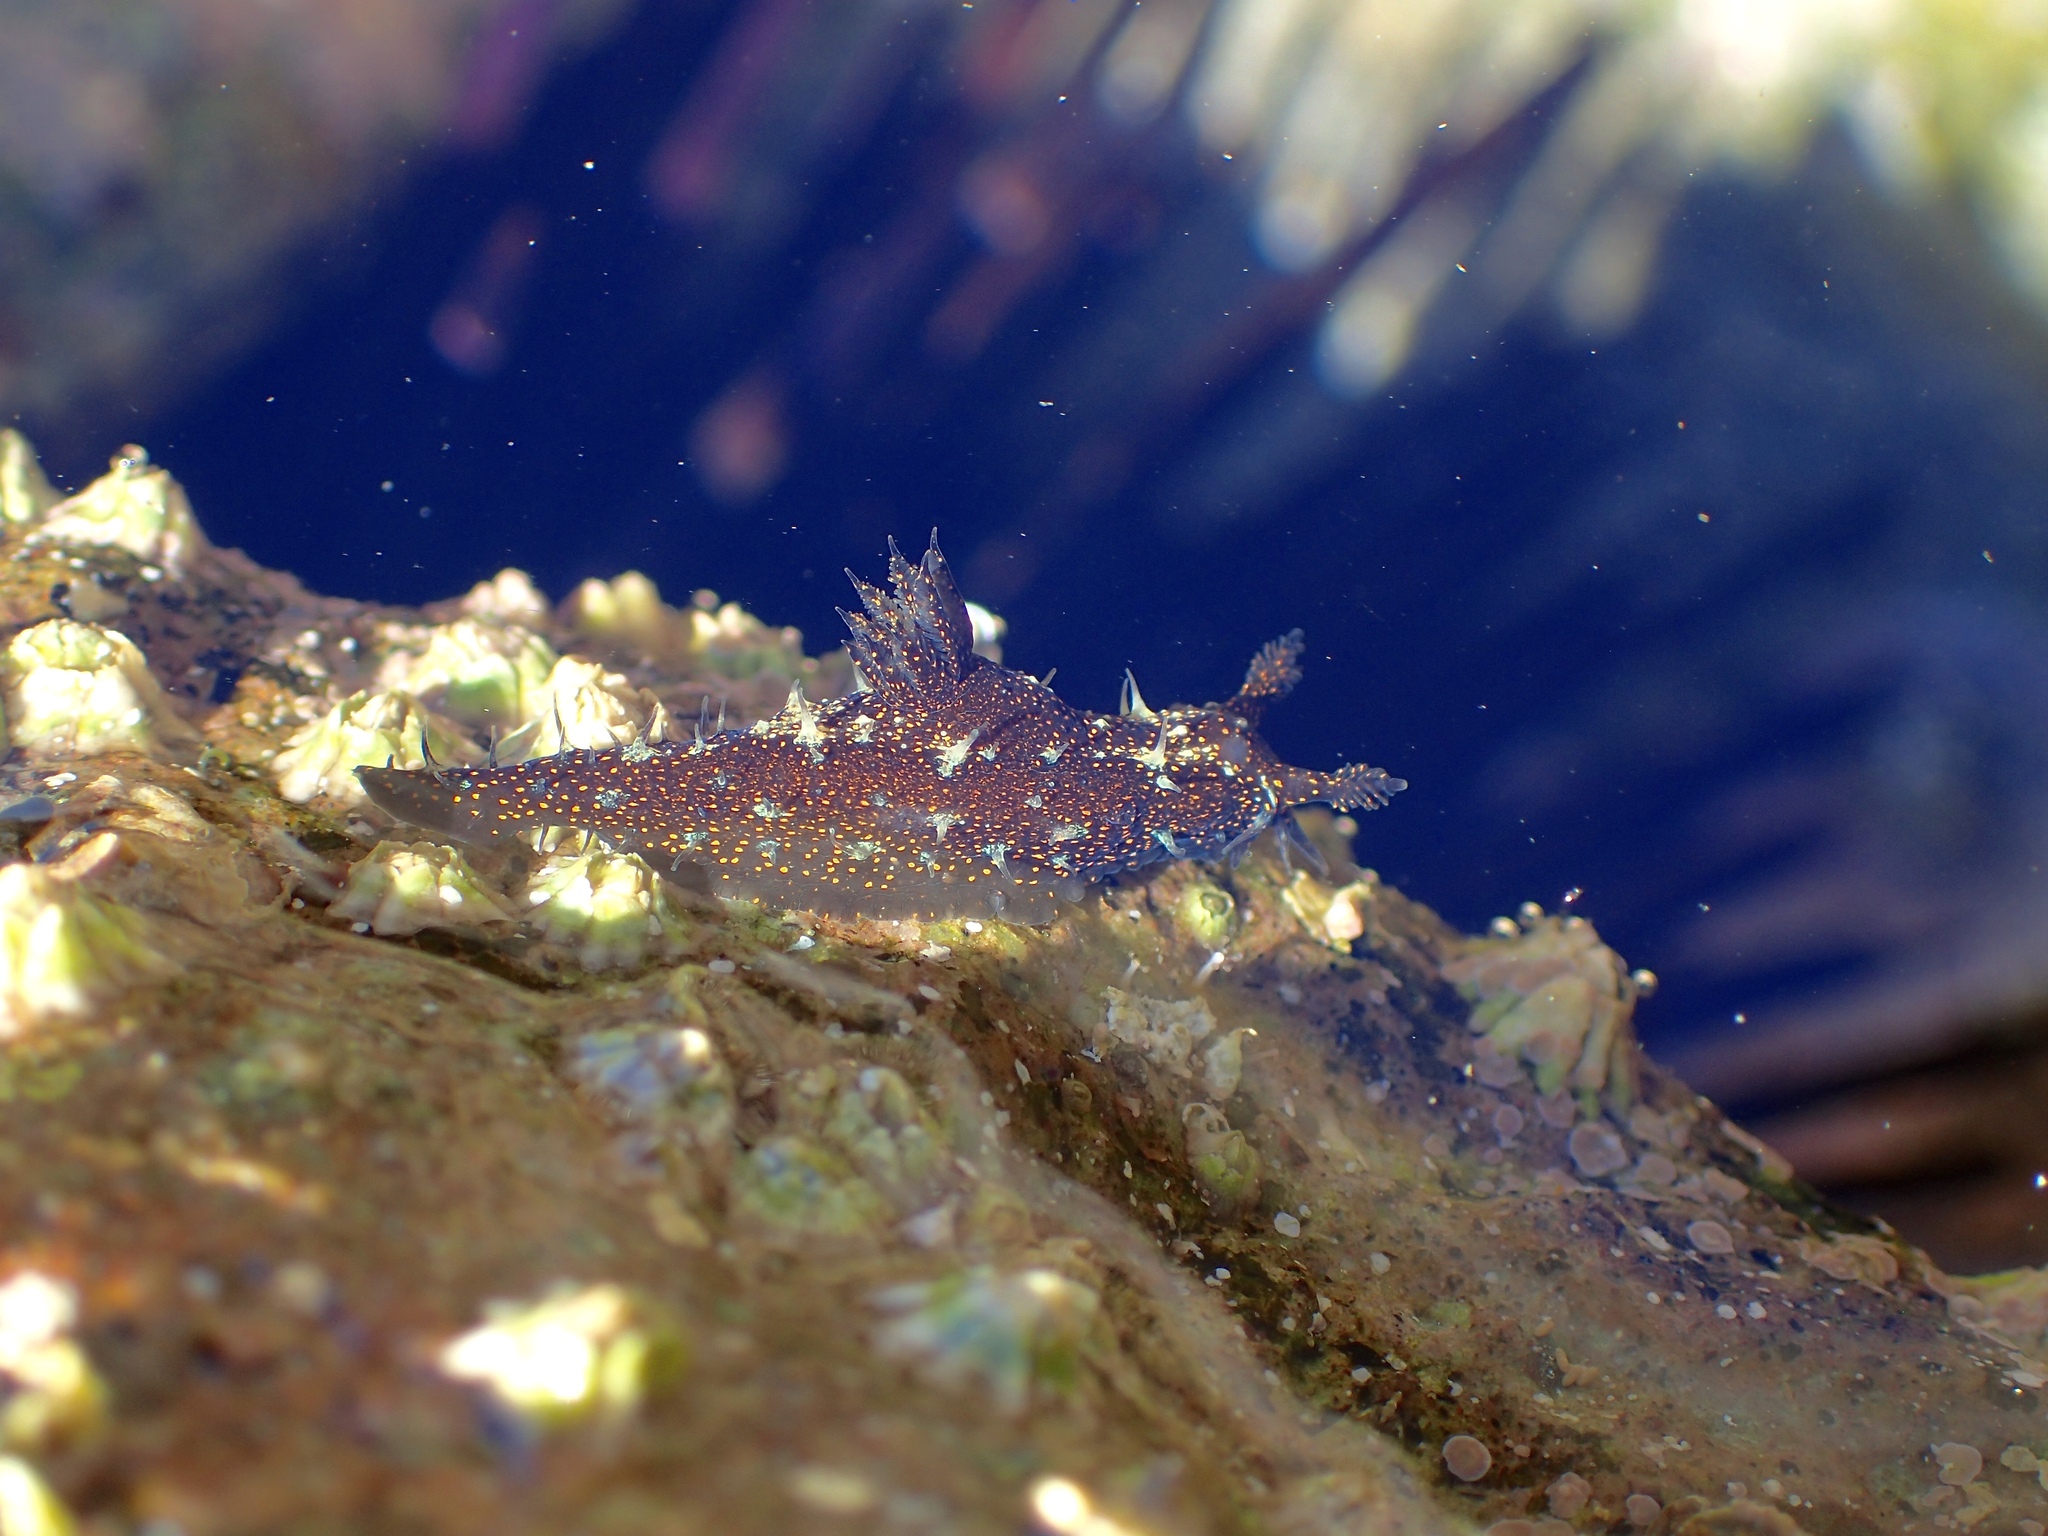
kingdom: Animalia
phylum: Mollusca
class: Gastropoda
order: Nudibranchia
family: Polyceridae
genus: Polycera
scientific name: Polycera alabe
